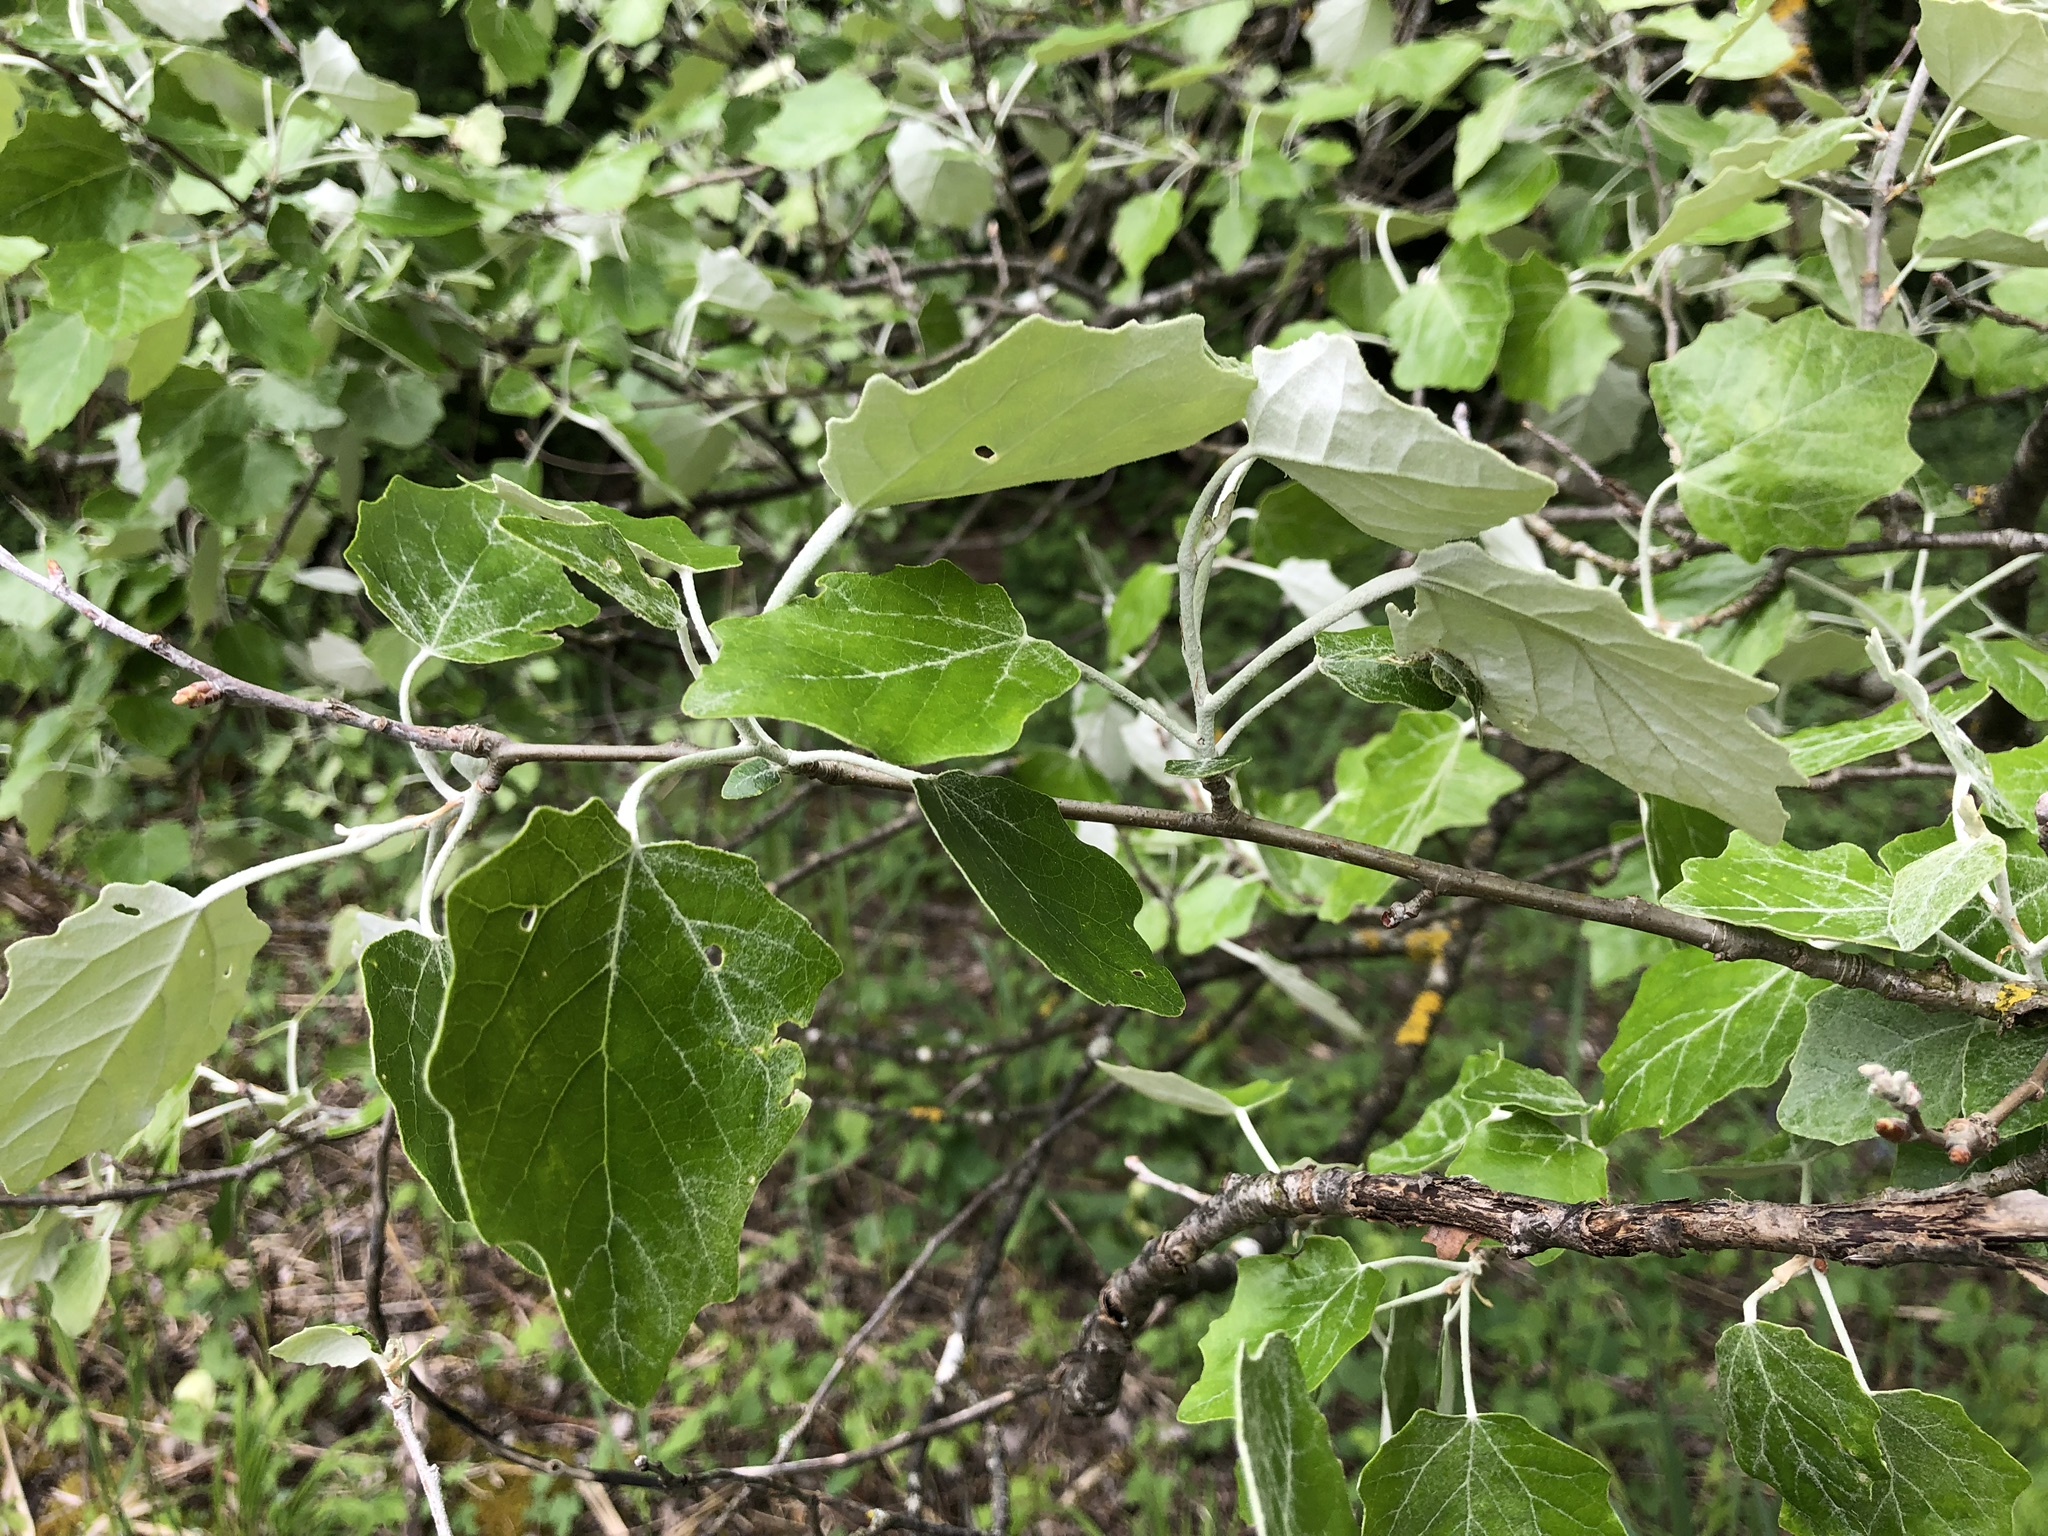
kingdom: Plantae
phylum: Tracheophyta
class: Magnoliopsida
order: Malpighiales
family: Salicaceae
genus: Populus
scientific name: Populus alba
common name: White poplar
